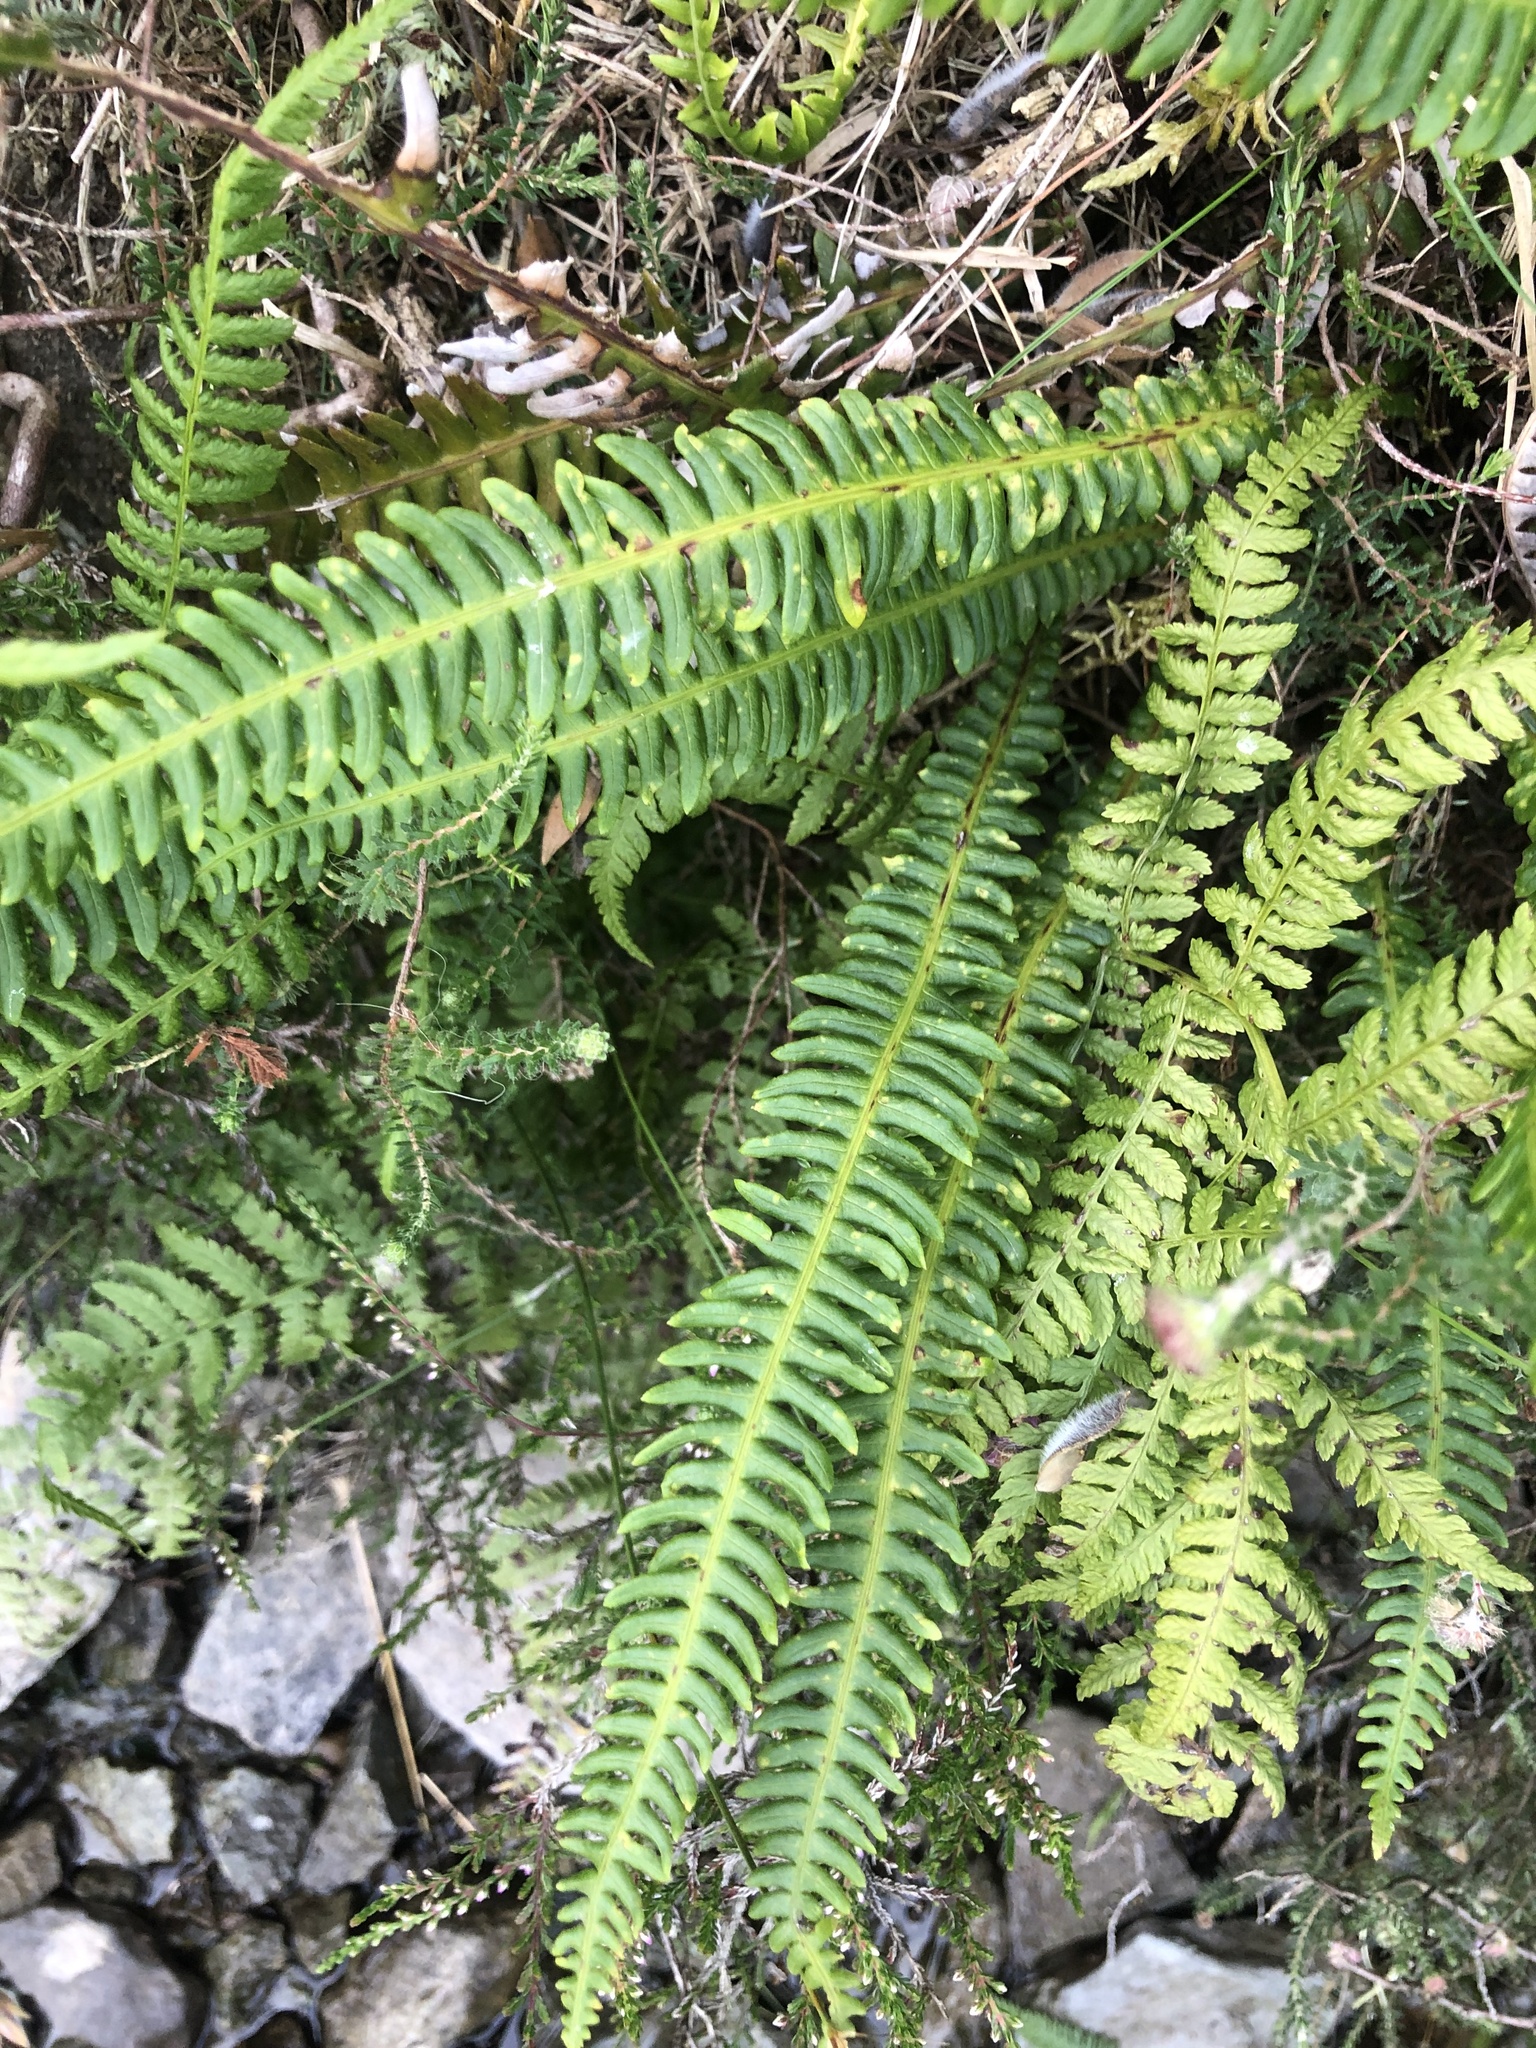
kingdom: Plantae
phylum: Tracheophyta
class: Polypodiopsida
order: Polypodiales
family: Blechnaceae
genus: Struthiopteris
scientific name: Struthiopteris spicant
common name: Deer fern
